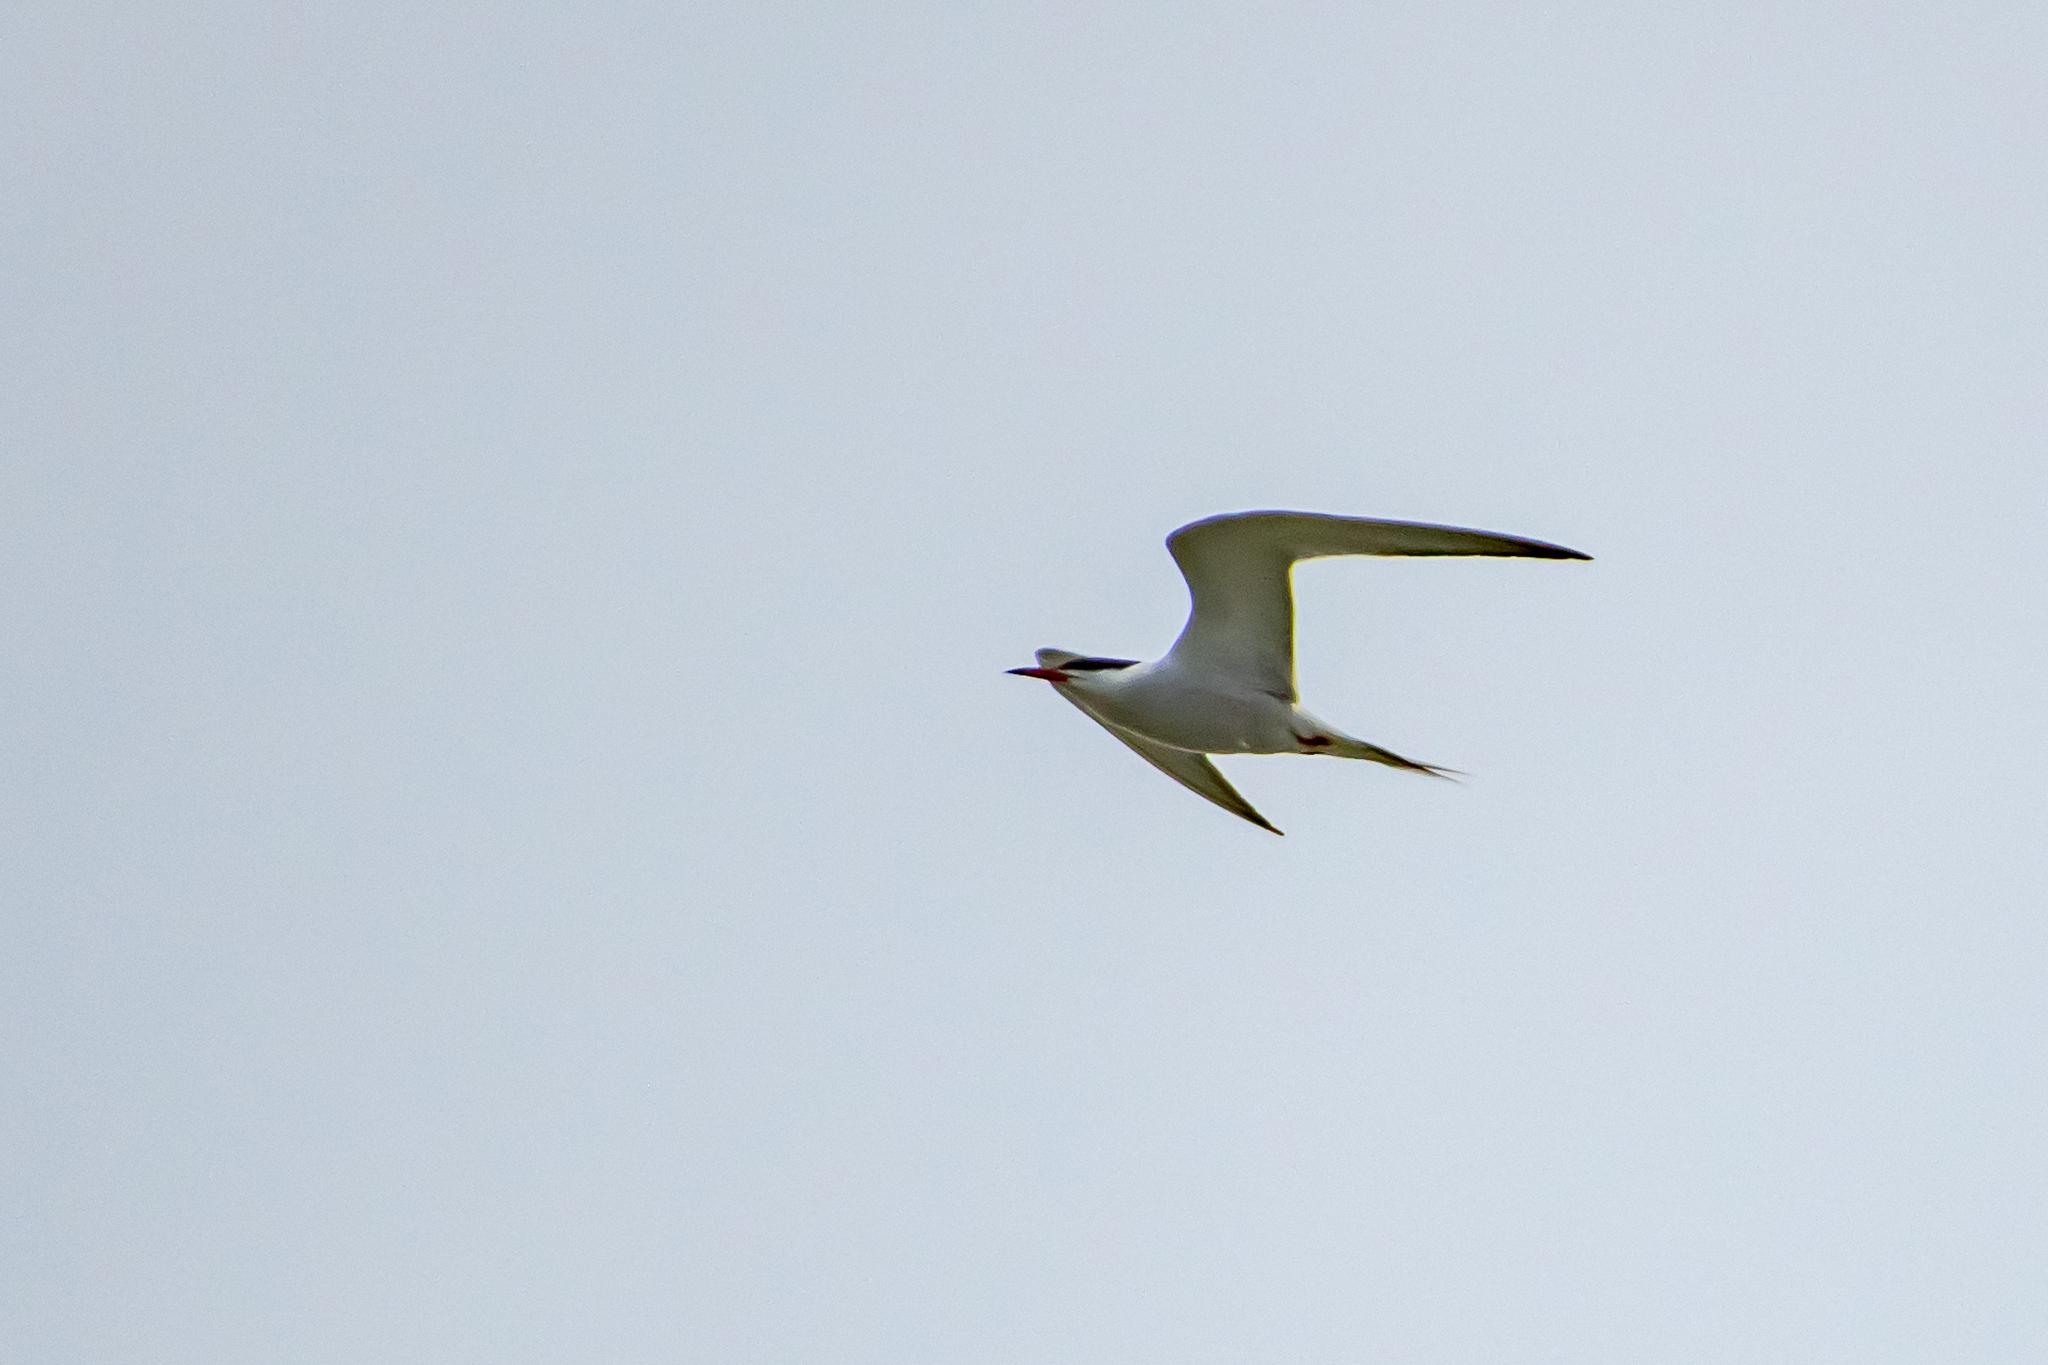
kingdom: Animalia
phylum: Chordata
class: Aves
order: Charadriiformes
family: Laridae
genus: Sterna
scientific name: Sterna hirundo
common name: Common tern
